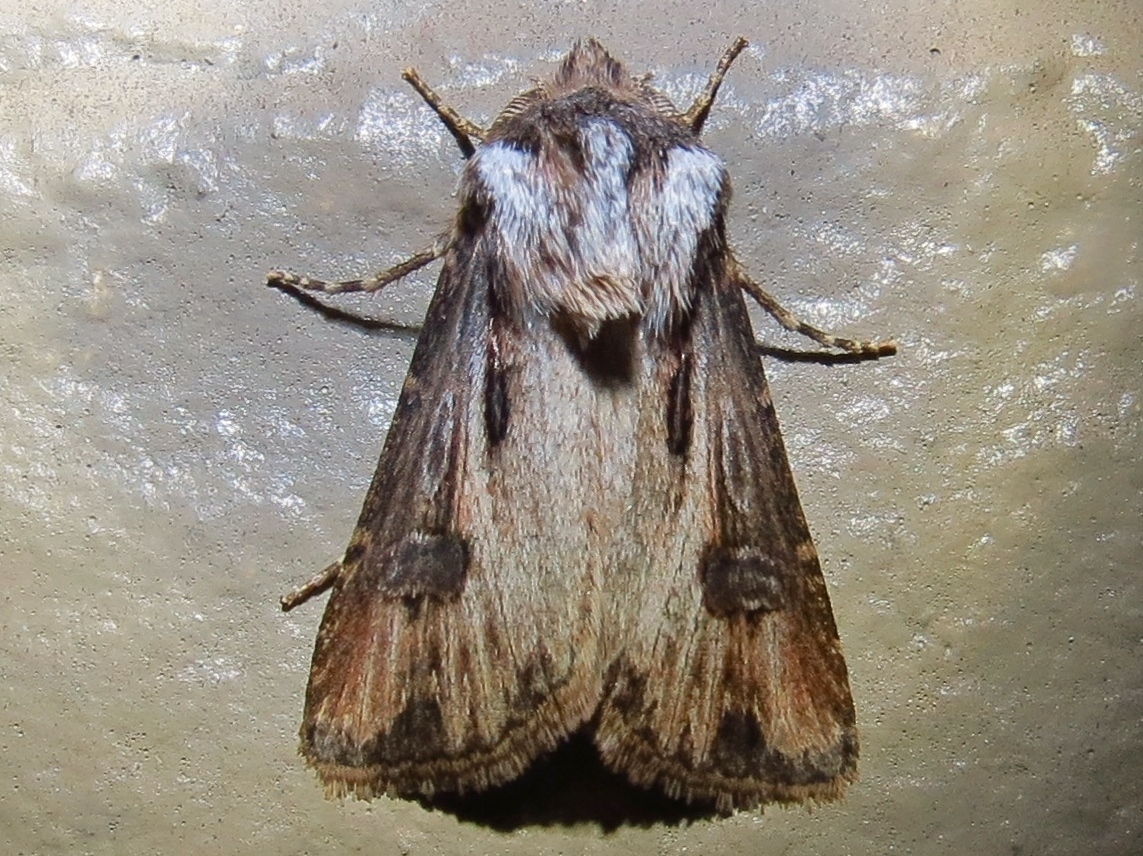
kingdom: Animalia
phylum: Arthropoda
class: Insecta
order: Lepidoptera
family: Noctuidae
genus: Agrotis
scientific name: Agrotis venerabilis
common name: Venerable dart
